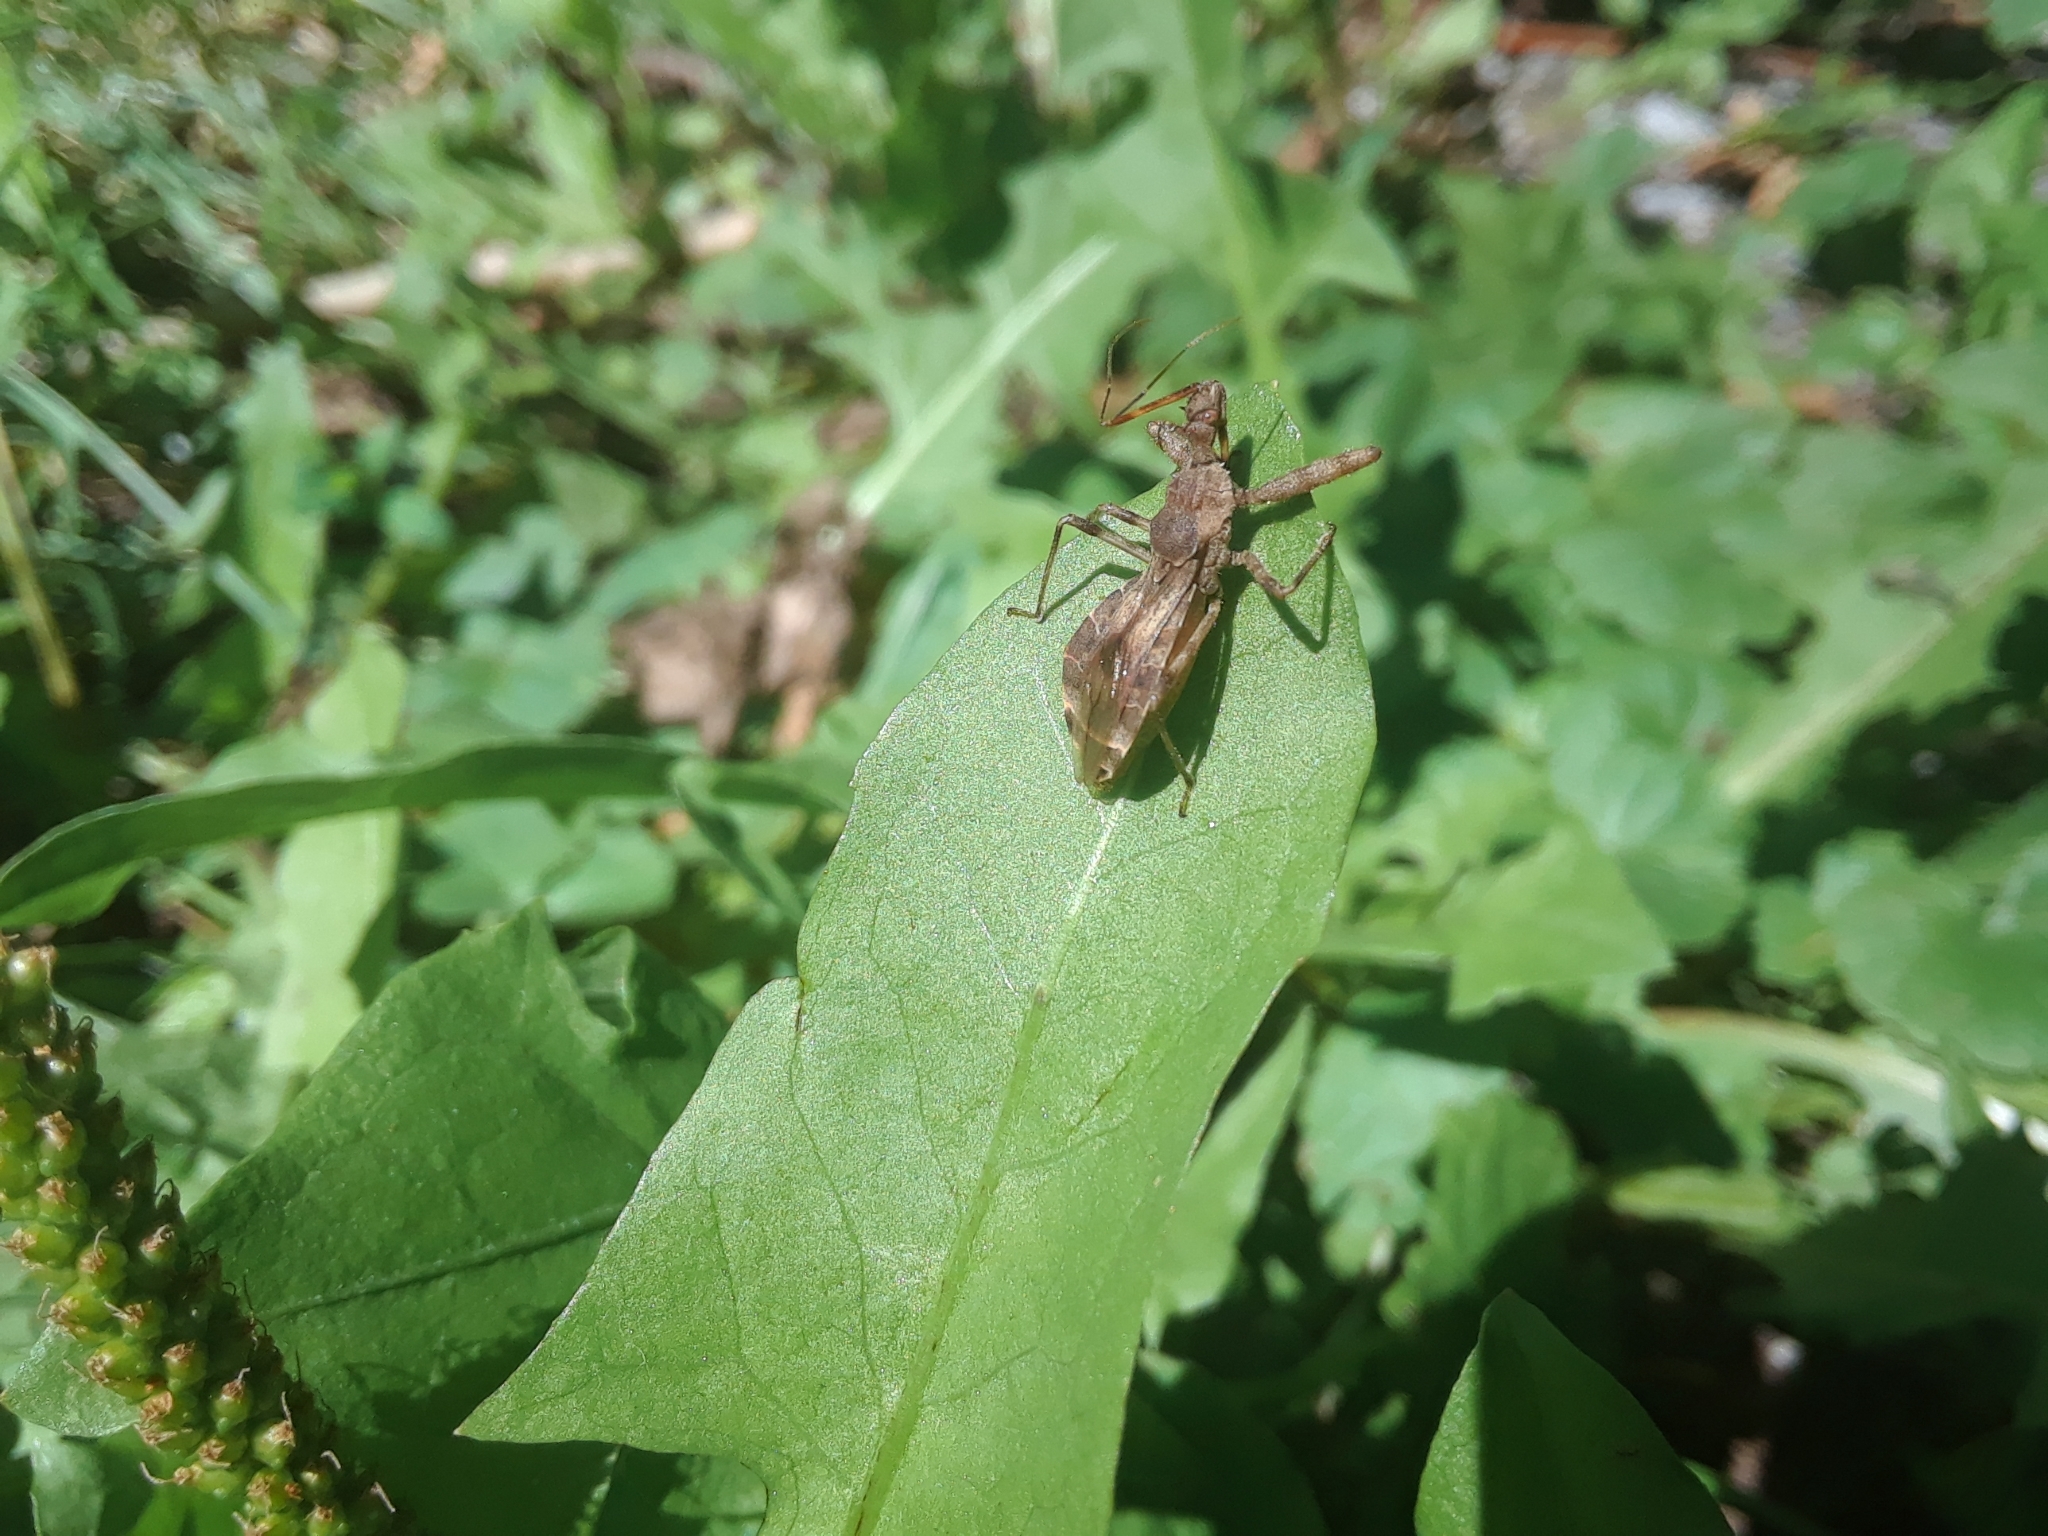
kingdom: Animalia
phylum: Arthropoda
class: Insecta
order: Hemiptera
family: Reduviidae
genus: Acholla
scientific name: Acholla multispinosa
